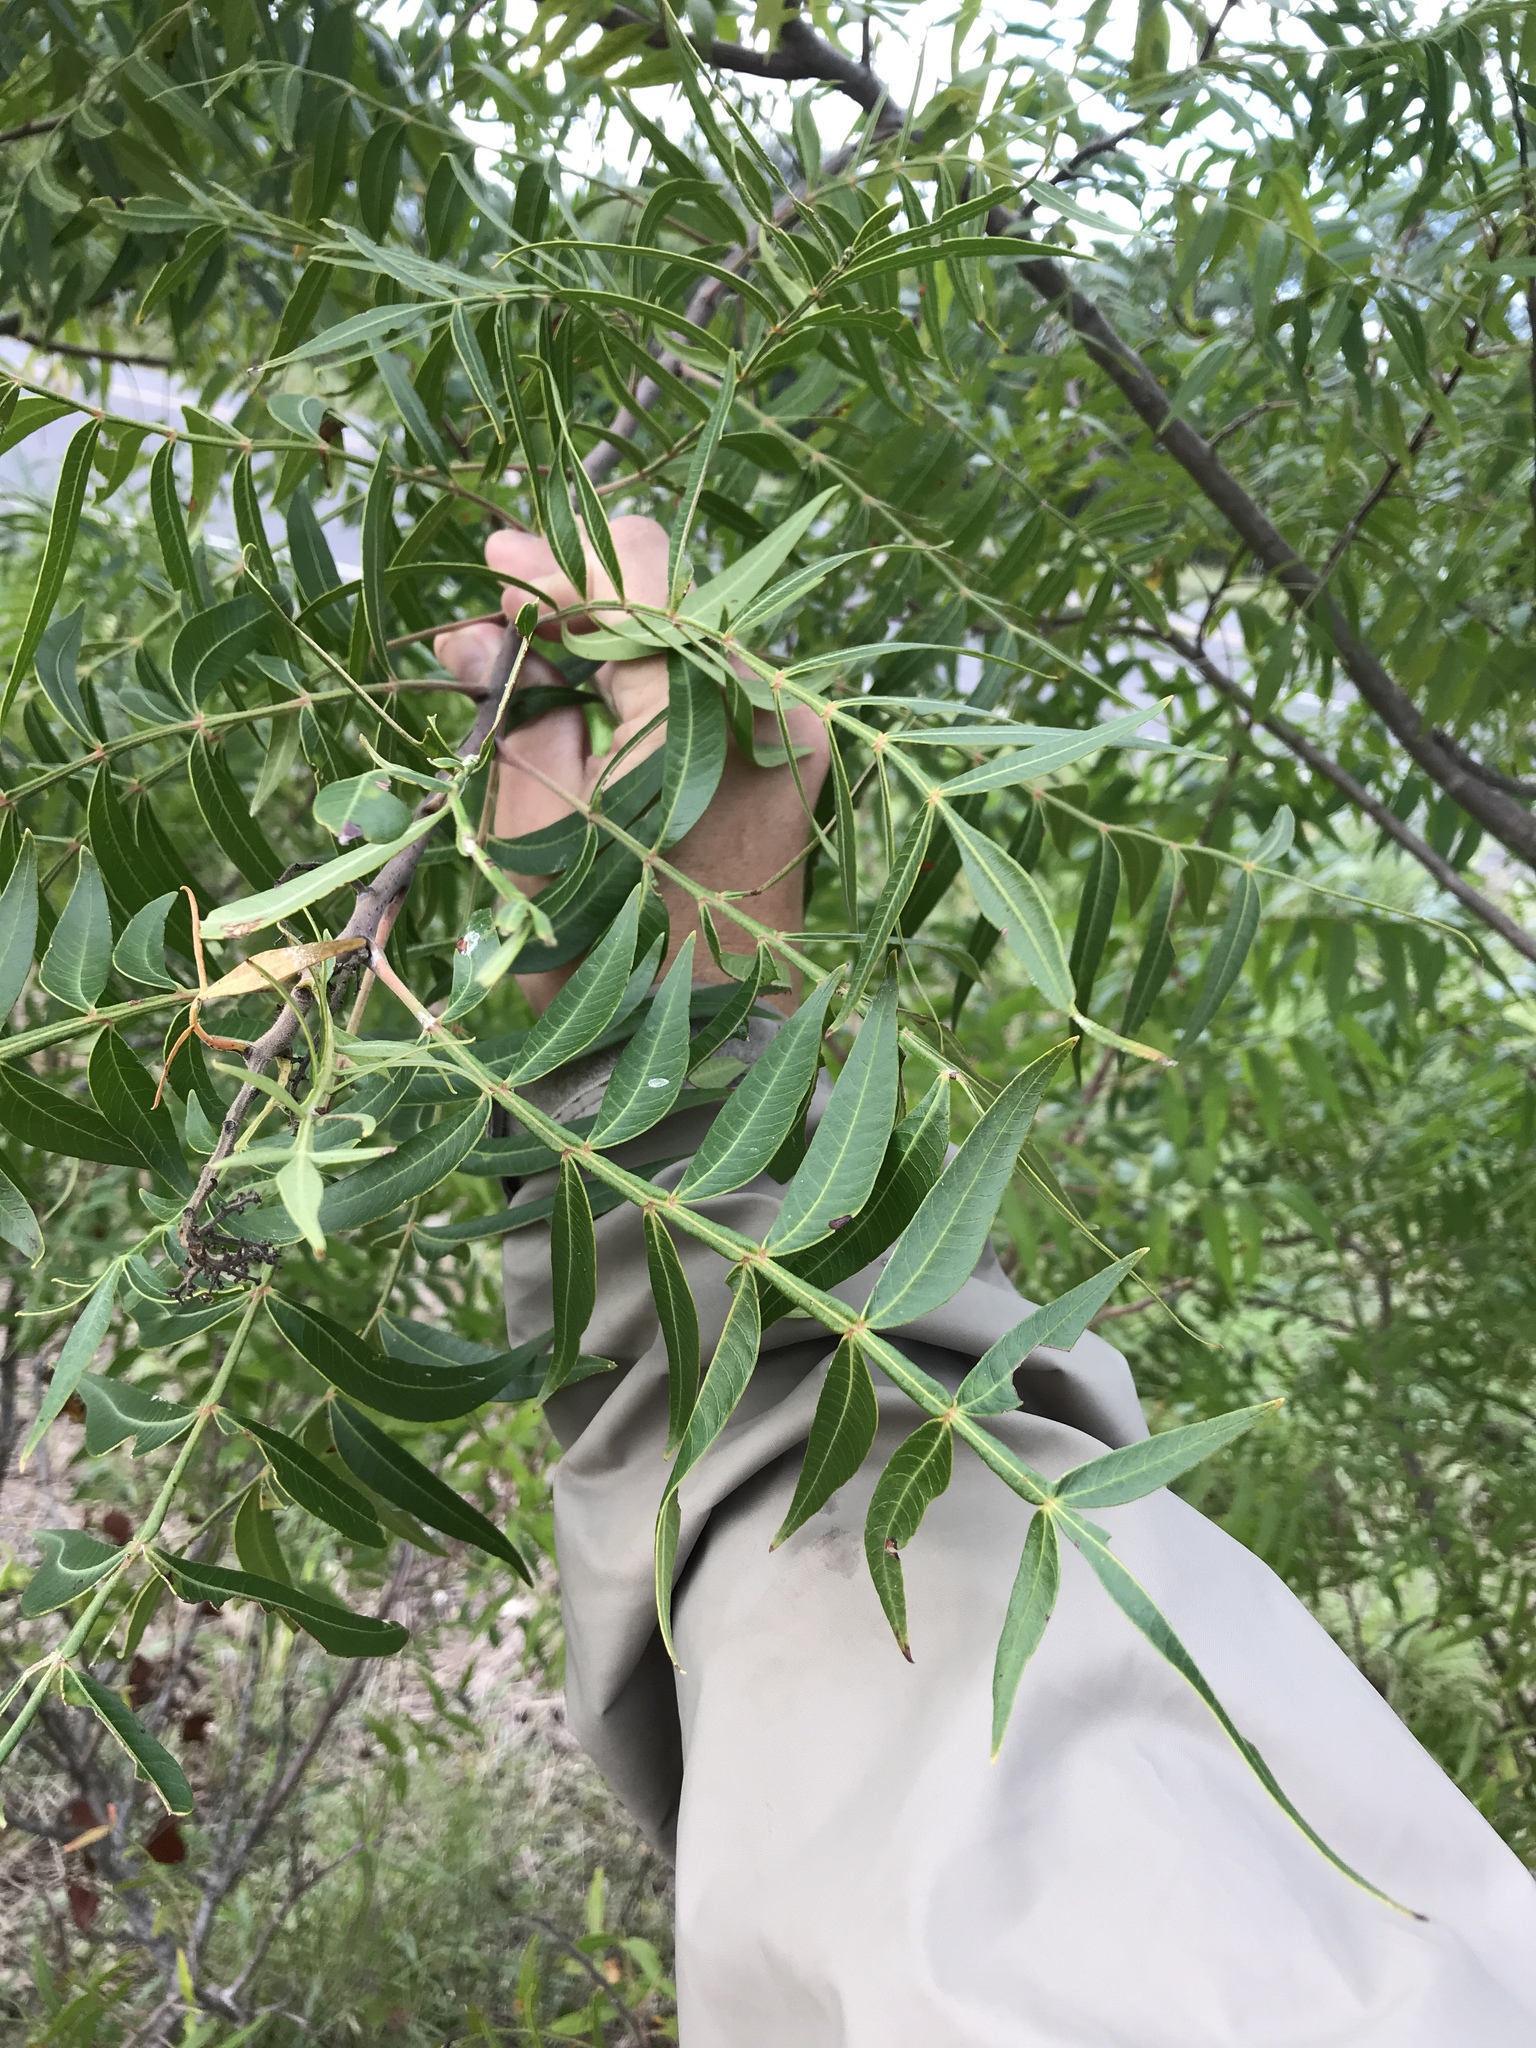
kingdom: Plantae
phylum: Tracheophyta
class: Magnoliopsida
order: Sapindales
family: Anacardiaceae
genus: Rhus
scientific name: Rhus lanceolata
